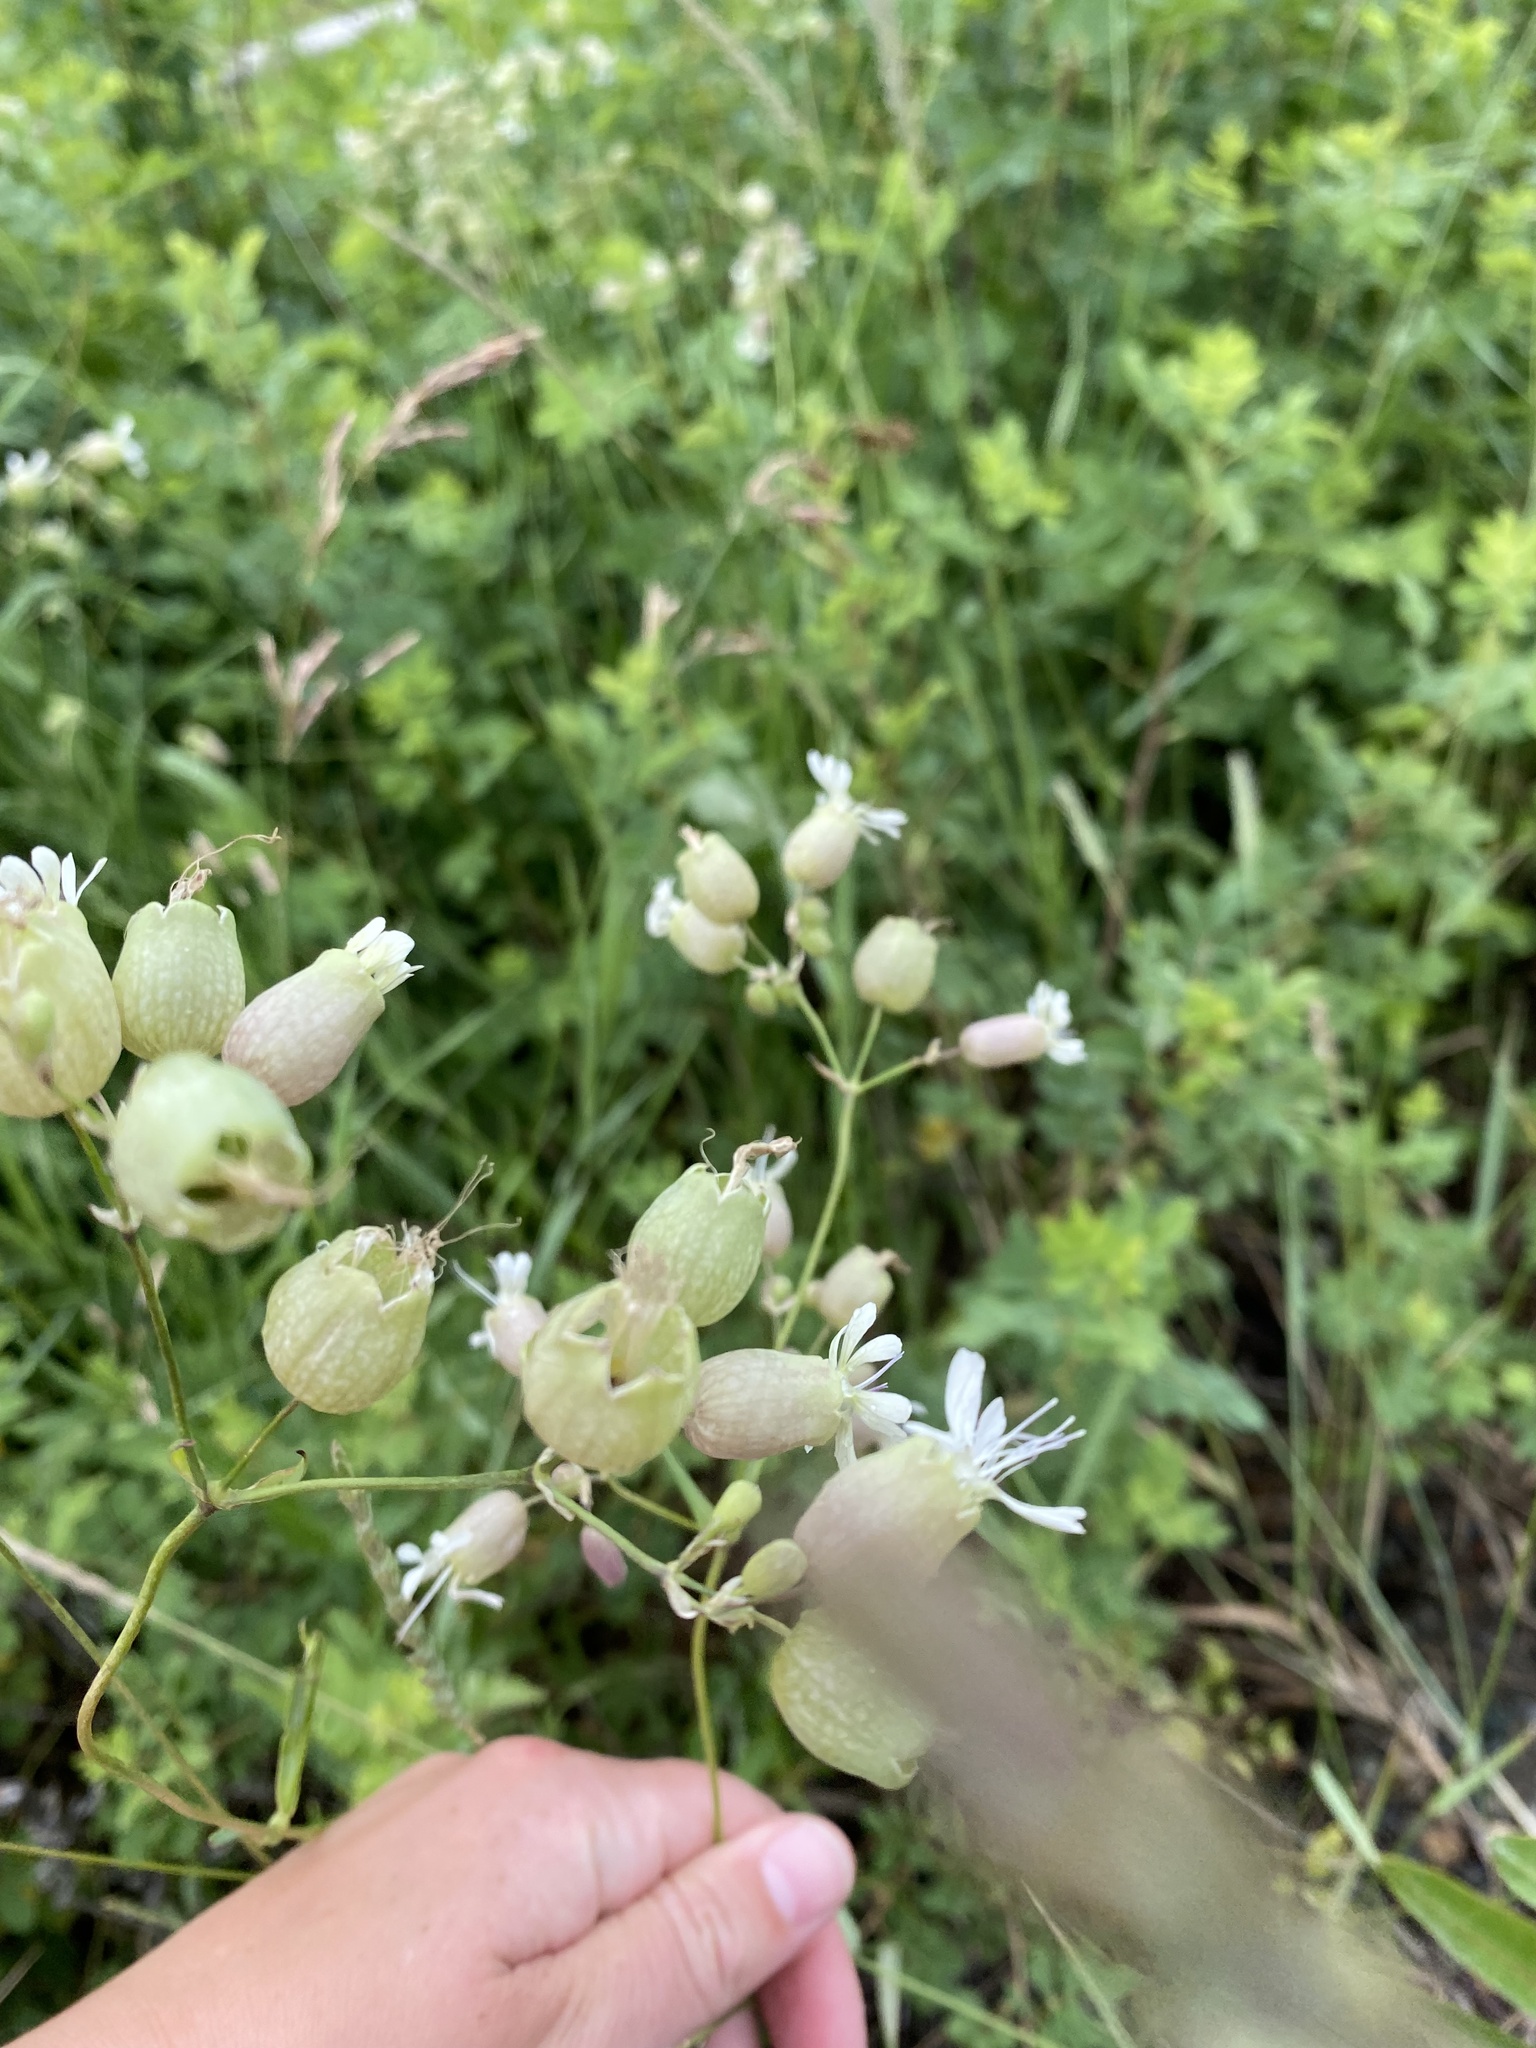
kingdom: Plantae
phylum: Tracheophyta
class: Magnoliopsida
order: Caryophyllales
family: Caryophyllaceae
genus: Silene
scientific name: Silene vulgaris
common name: Bladder campion
